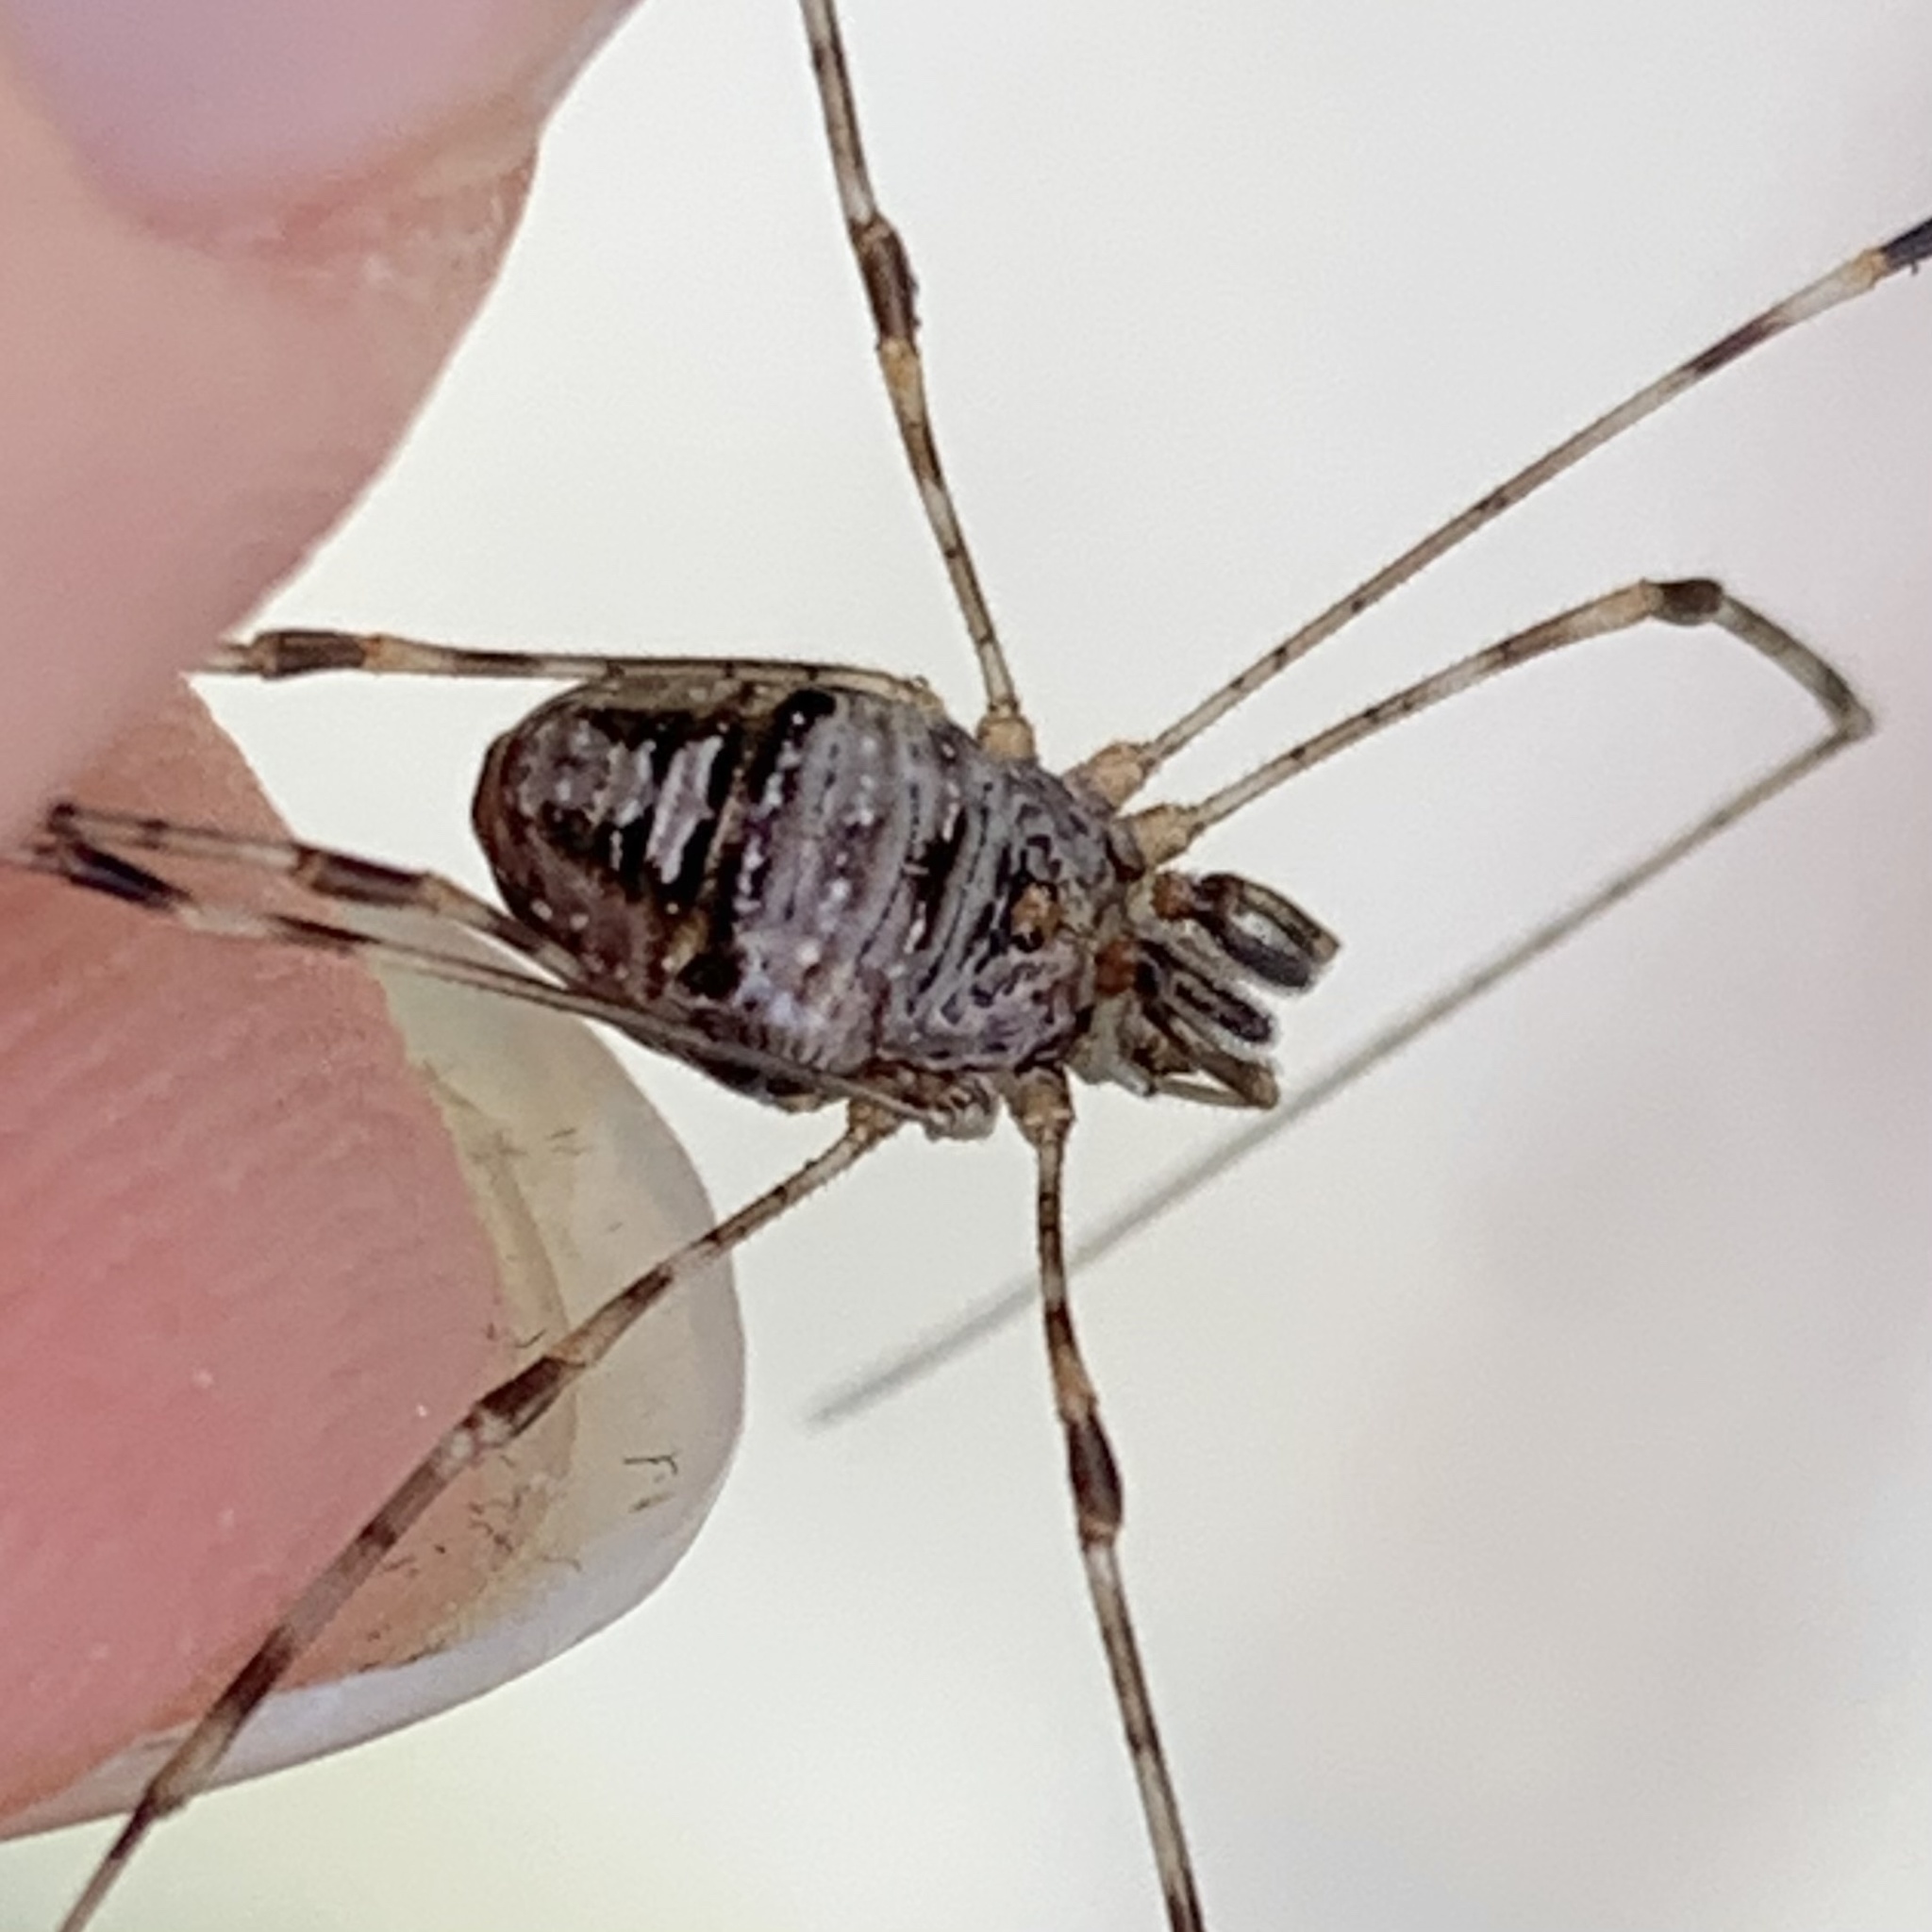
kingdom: Animalia
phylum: Arthropoda
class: Arachnida
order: Opiliones
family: Phalangiidae
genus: Dicranopalpus
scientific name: Dicranopalpus ramosus
